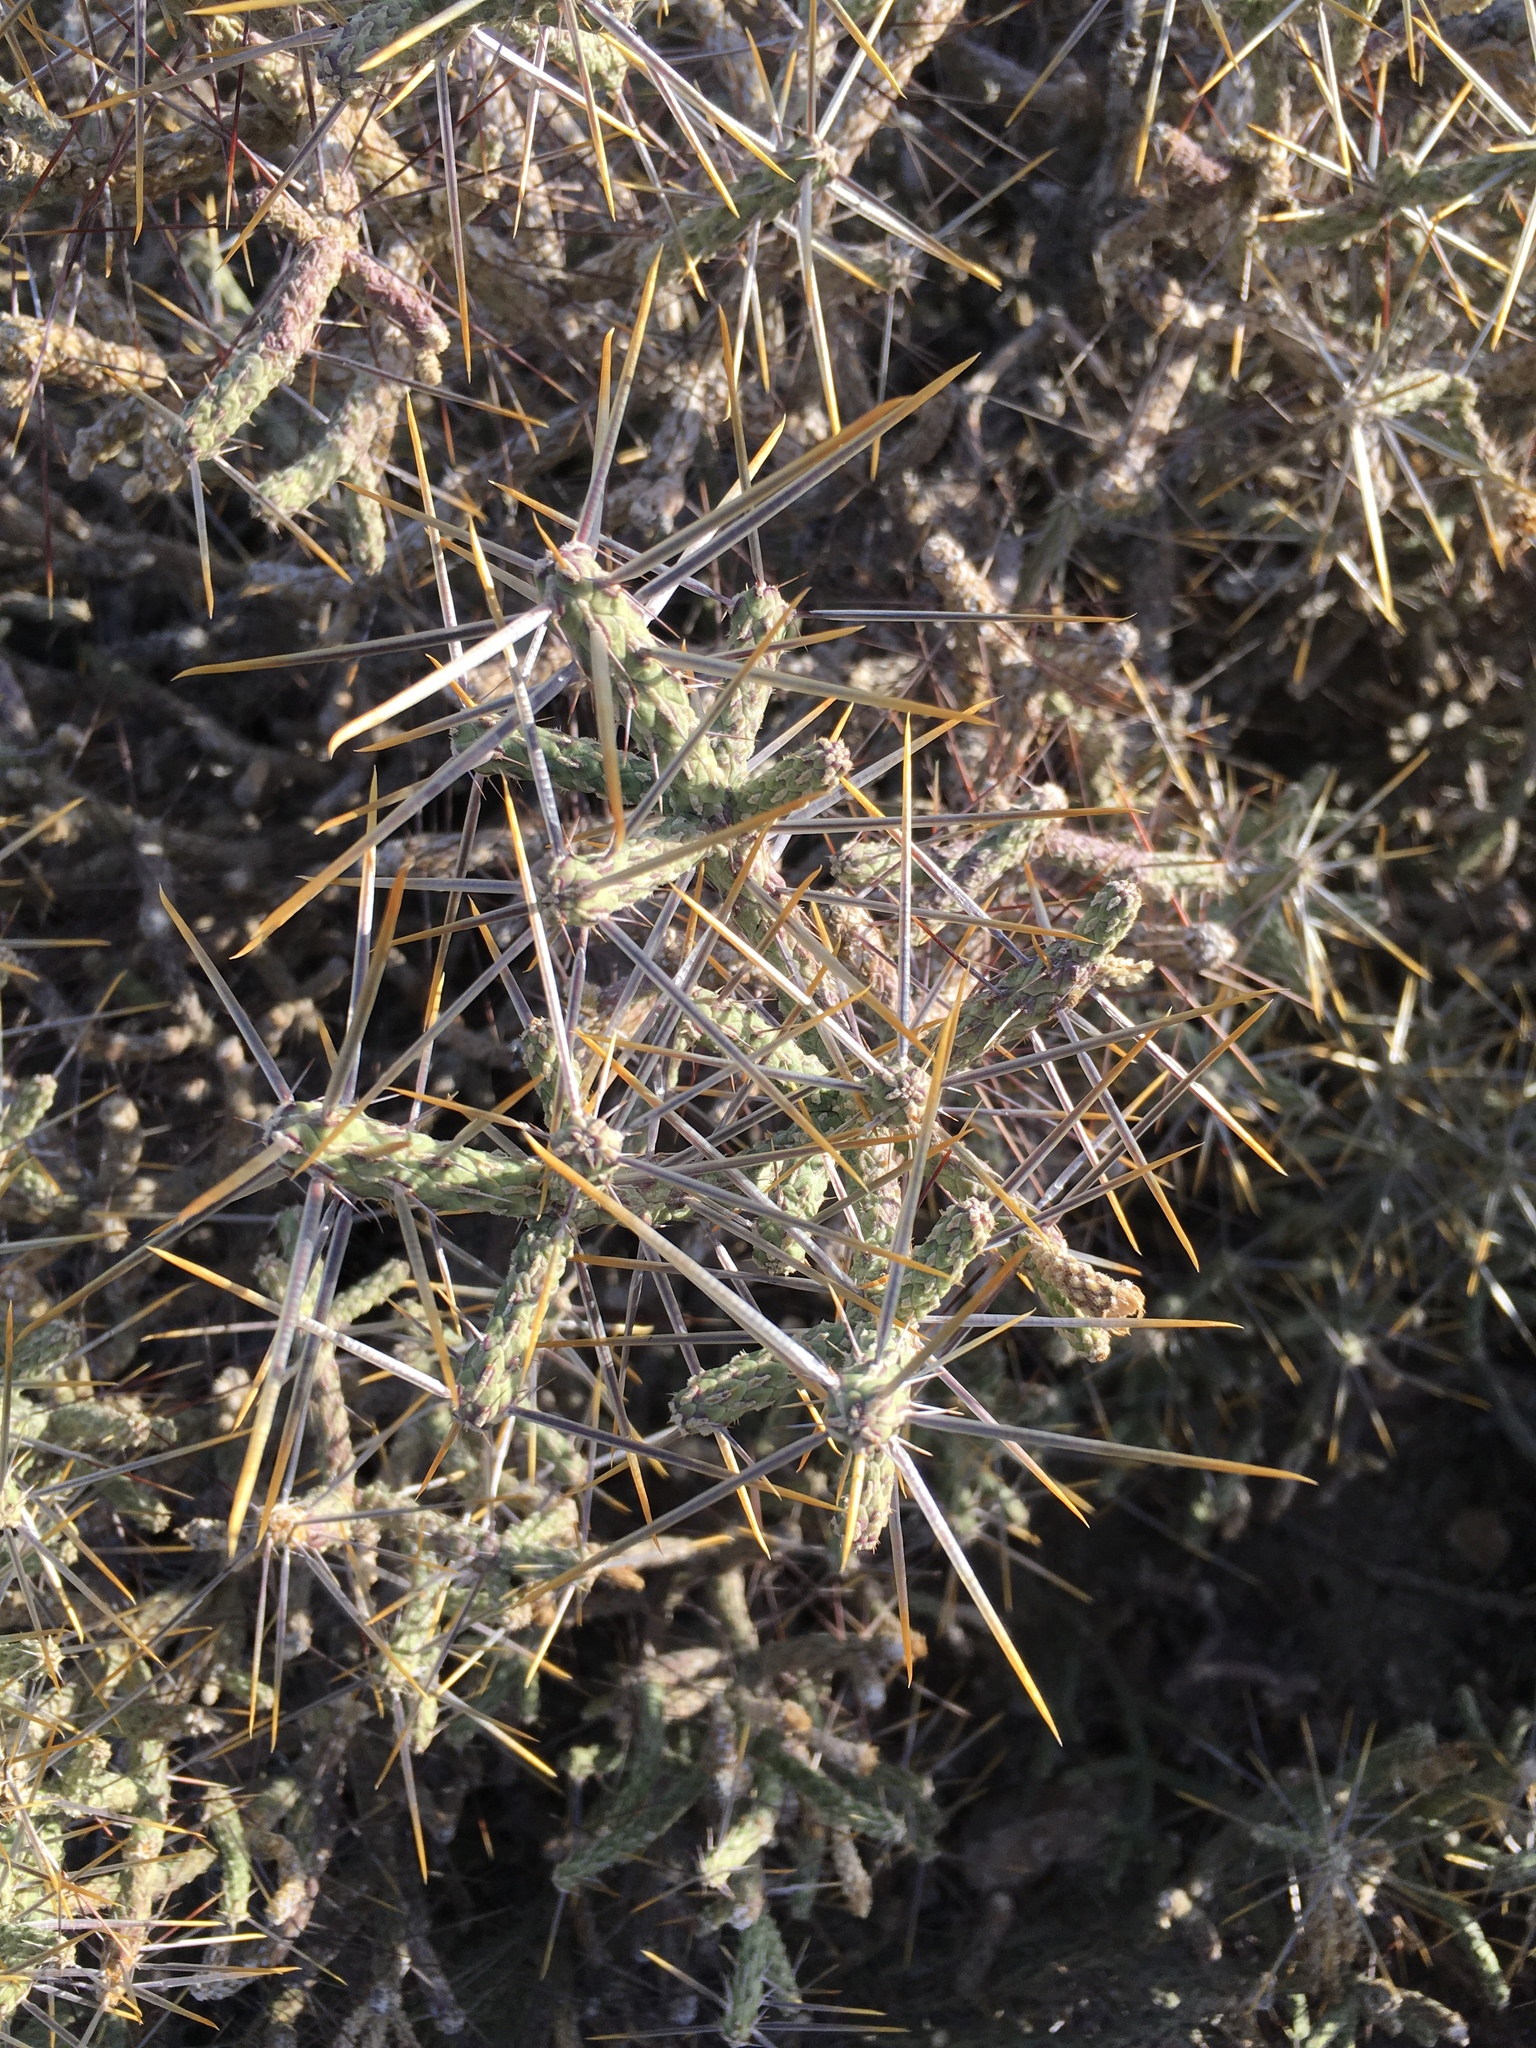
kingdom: Plantae
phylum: Tracheophyta
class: Magnoliopsida
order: Caryophyllales
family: Cactaceae
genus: Cylindropuntia
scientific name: Cylindropuntia ramosissima
